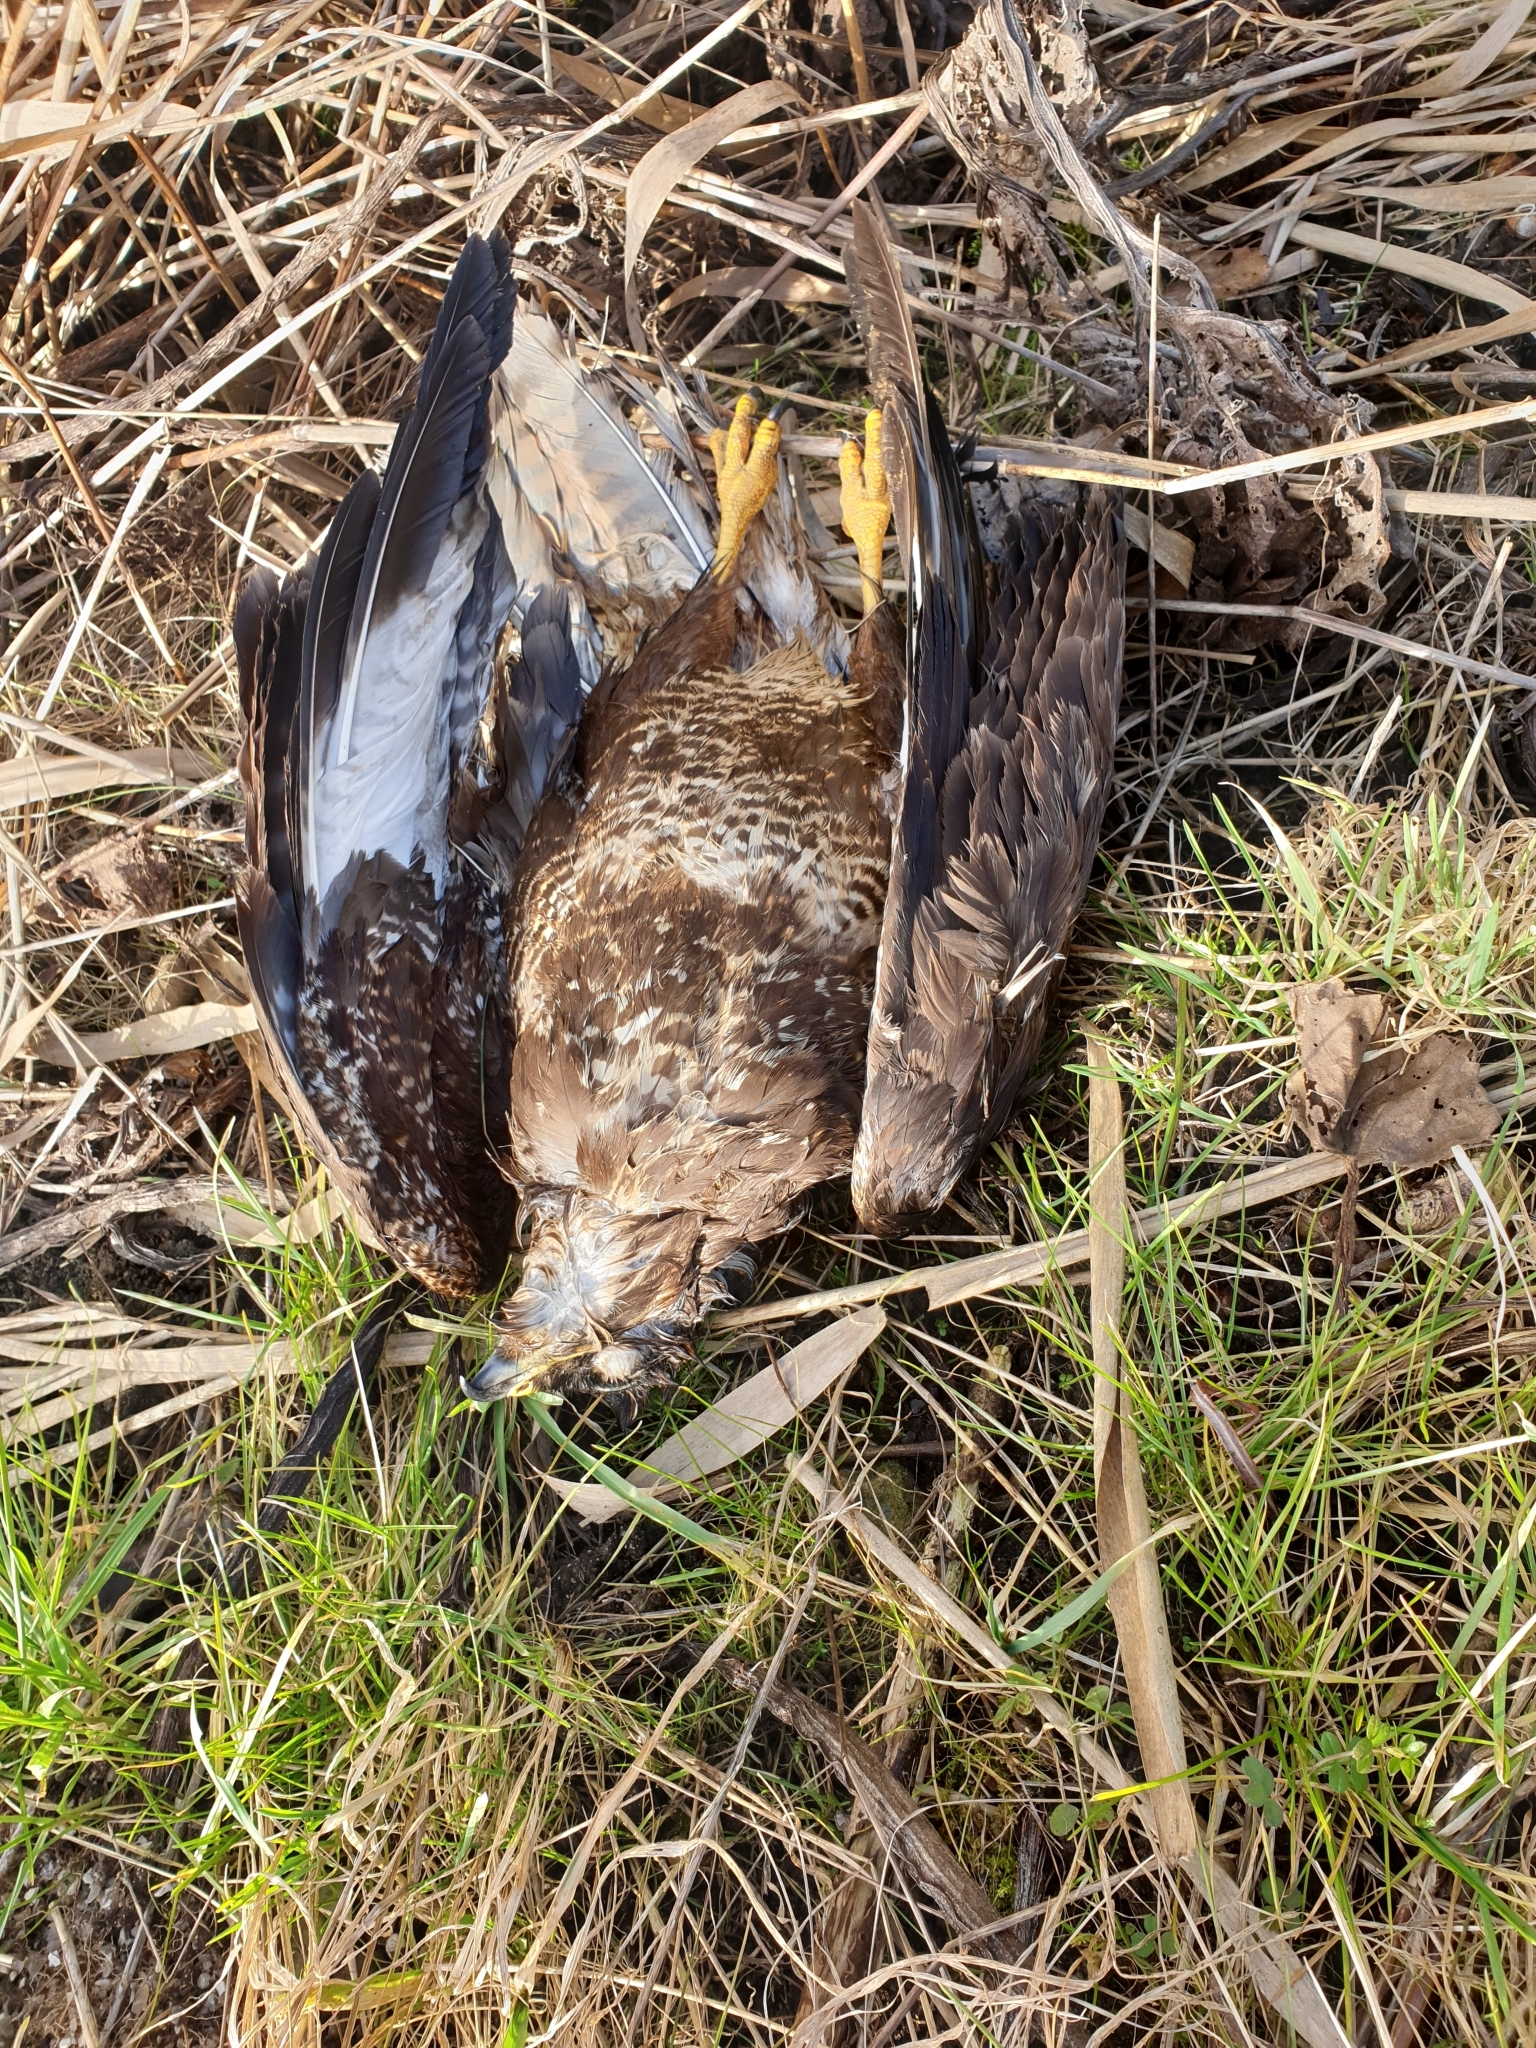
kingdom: Animalia
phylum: Chordata
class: Aves
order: Accipitriformes
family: Accipitridae
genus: Buteo
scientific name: Buteo buteo
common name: Common buzzard
